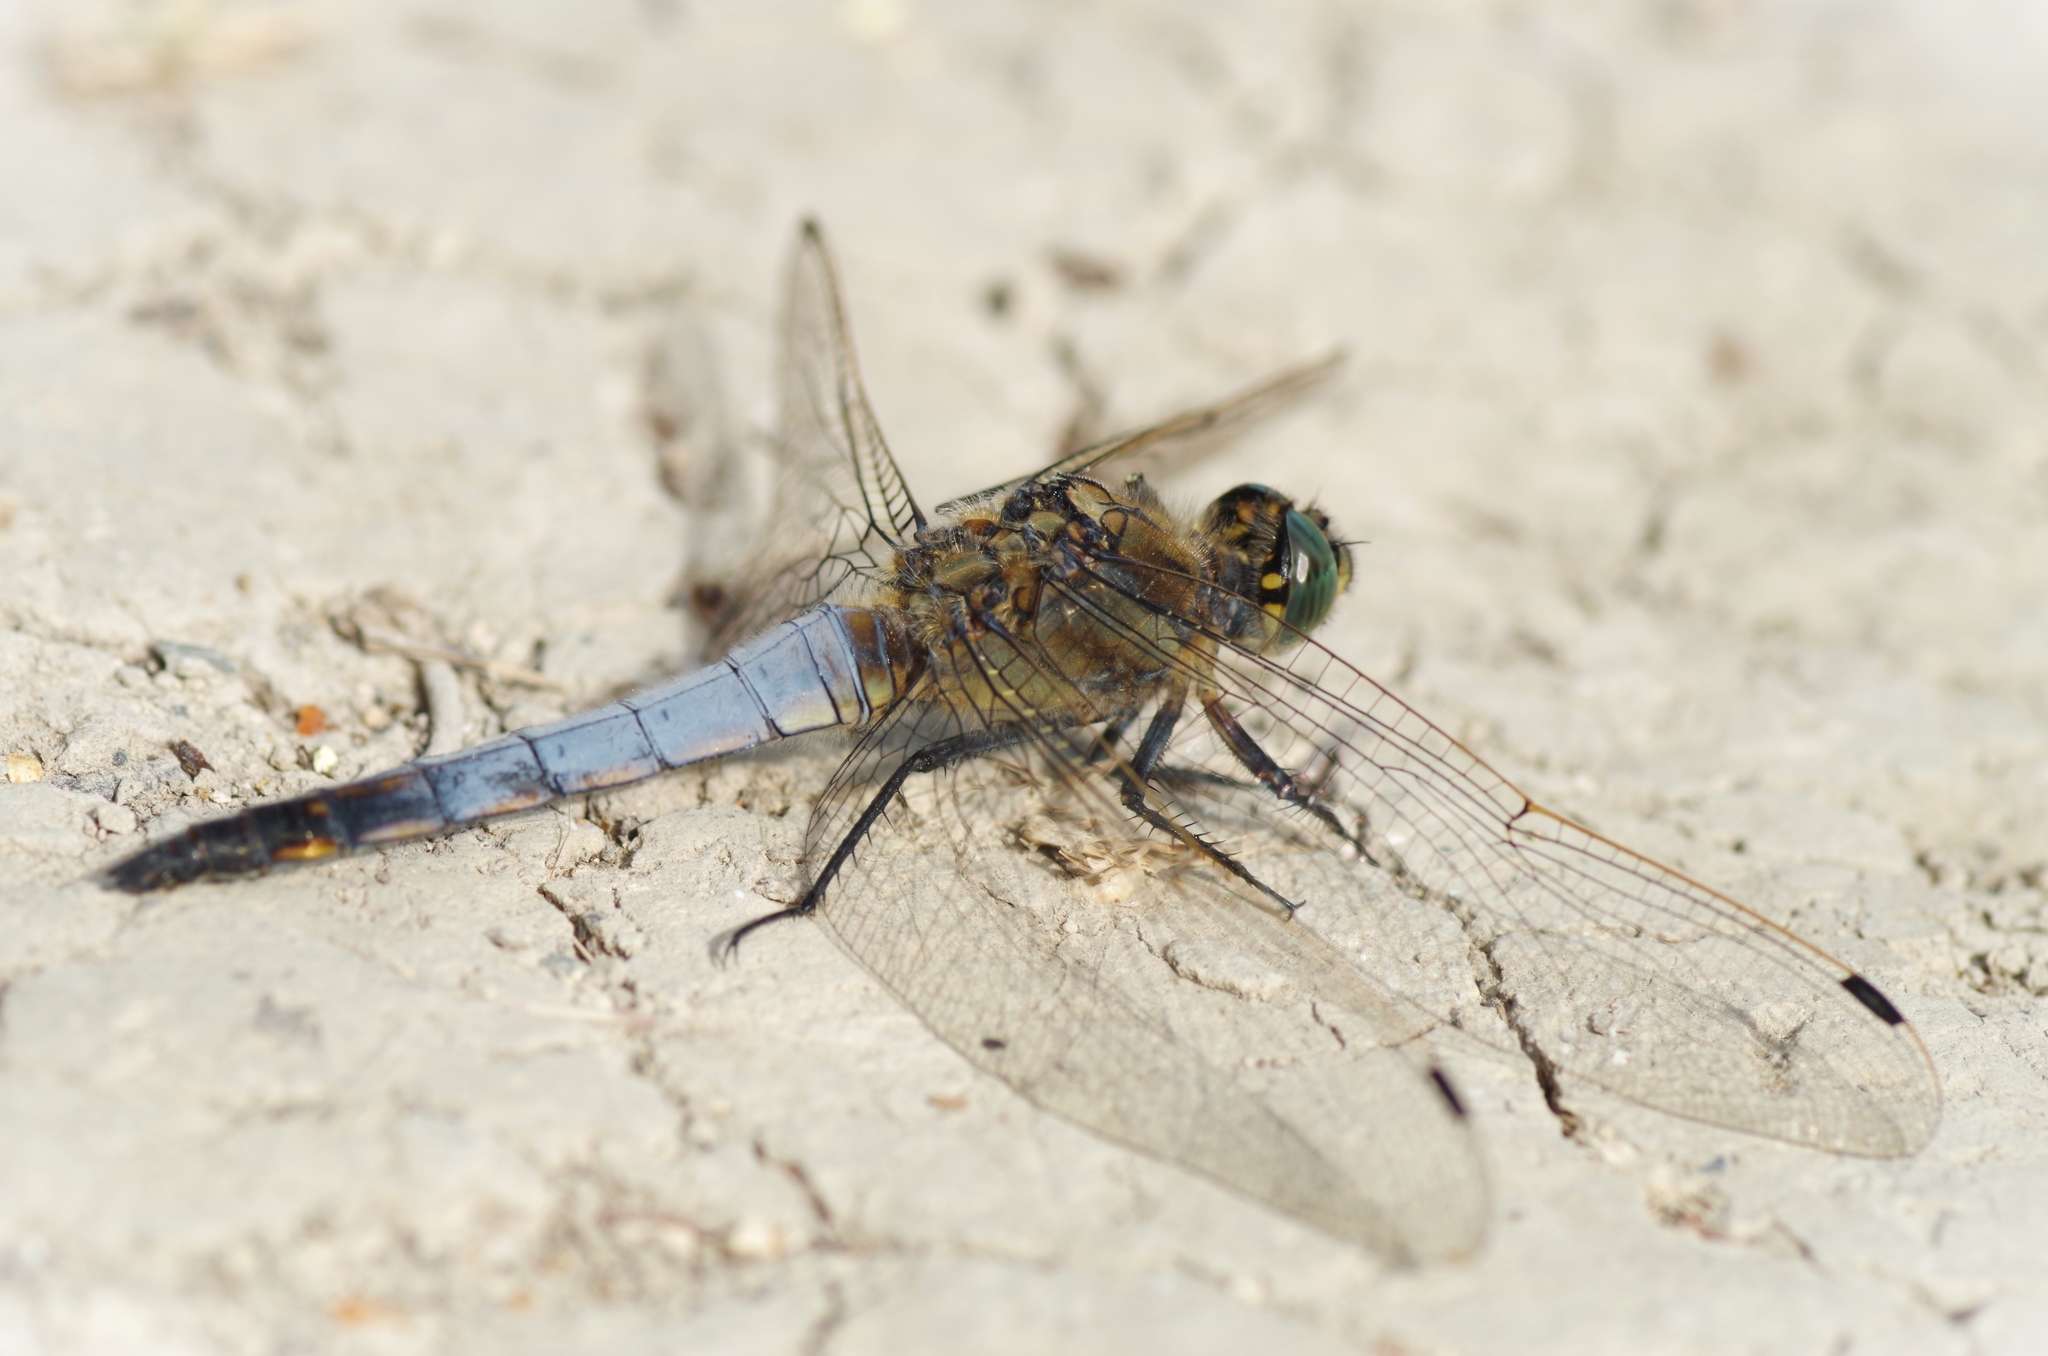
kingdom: Animalia
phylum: Arthropoda
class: Insecta
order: Odonata
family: Libellulidae
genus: Orthetrum
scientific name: Orthetrum cancellatum
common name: Black-tailed skimmer
